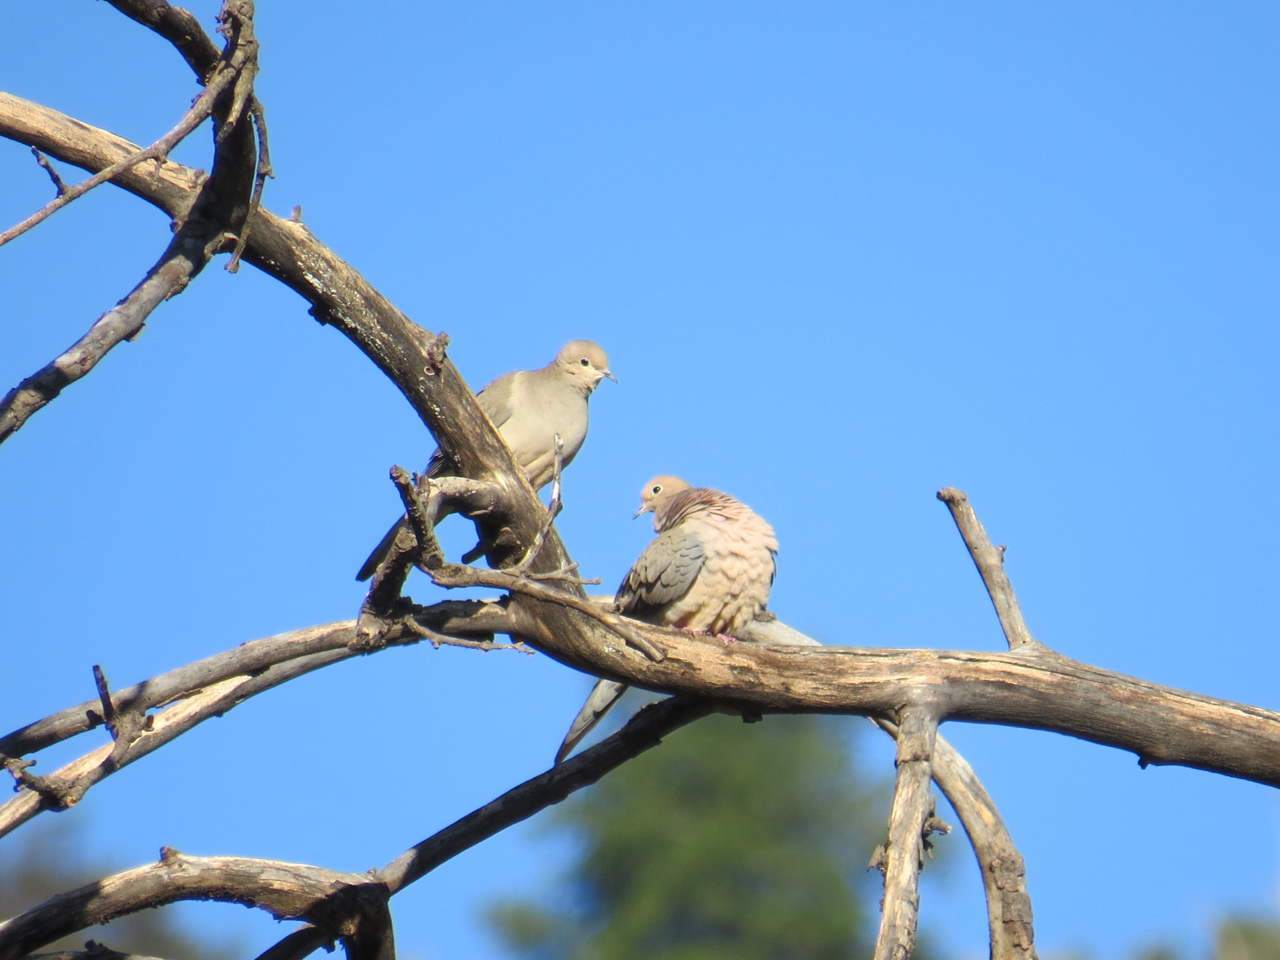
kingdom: Animalia
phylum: Chordata
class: Aves
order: Columbiformes
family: Columbidae
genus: Zenaida
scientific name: Zenaida macroura
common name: Mourning dove
